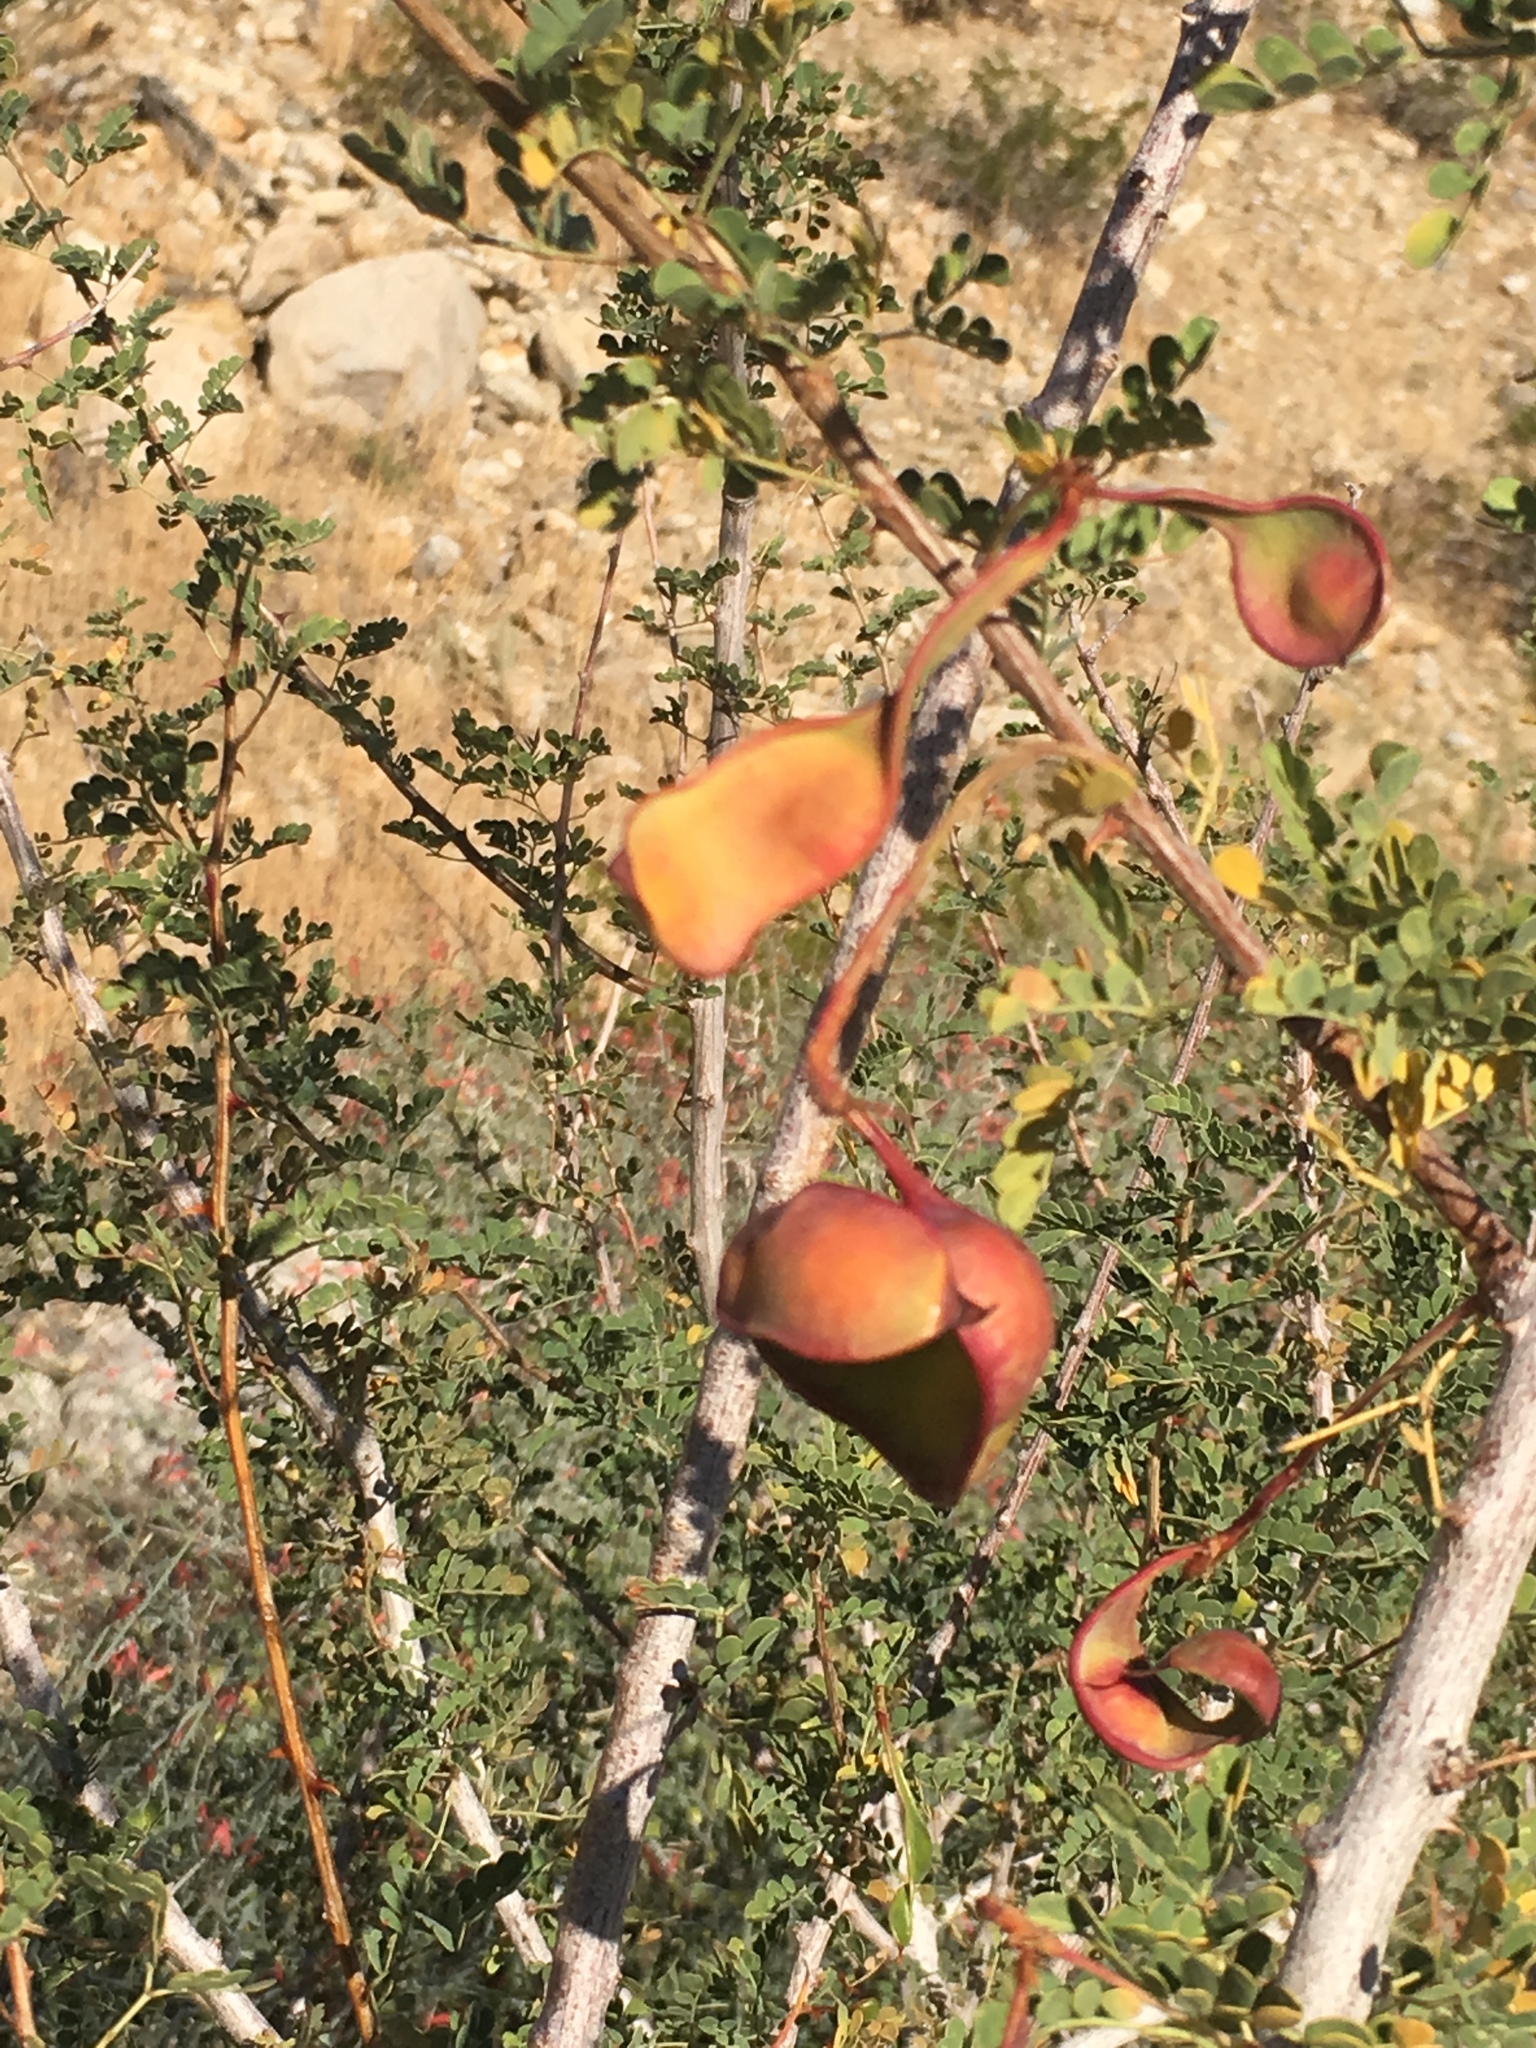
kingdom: Plantae
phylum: Tracheophyta
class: Magnoliopsida
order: Fabales
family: Fabaceae
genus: Senegalia
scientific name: Senegalia greggii
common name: Texas-mimosa
